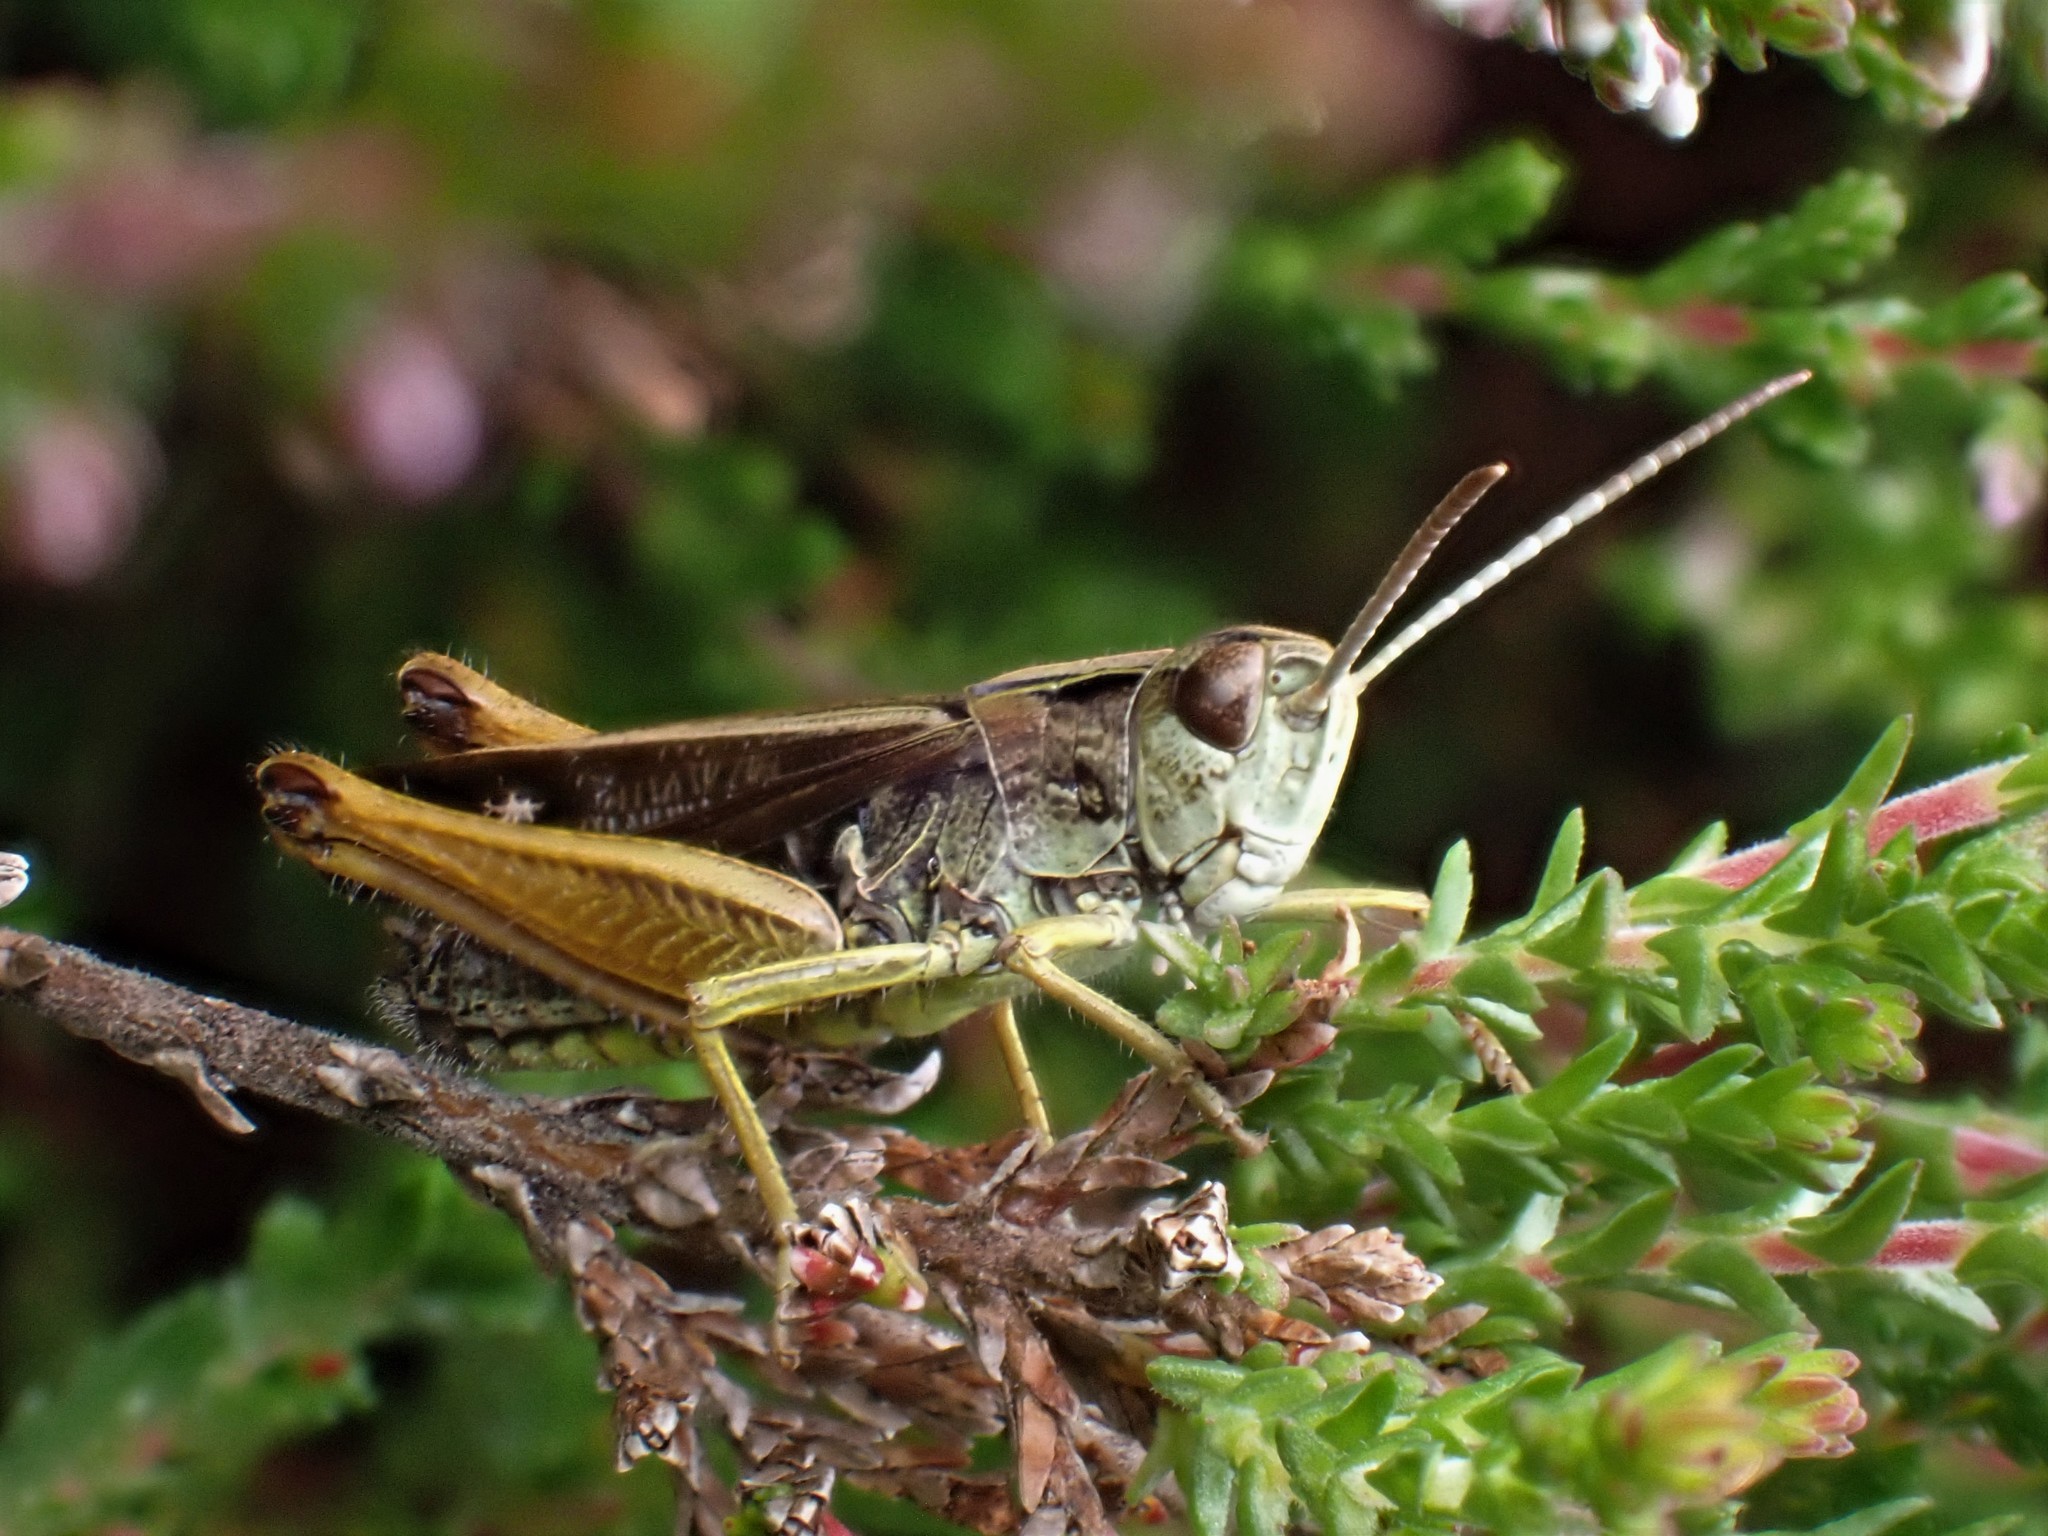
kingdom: Animalia
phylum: Arthropoda
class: Insecta
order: Orthoptera
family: Acrididae
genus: Omocestus
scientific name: Omocestus viridulus
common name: Common green grasshopper
